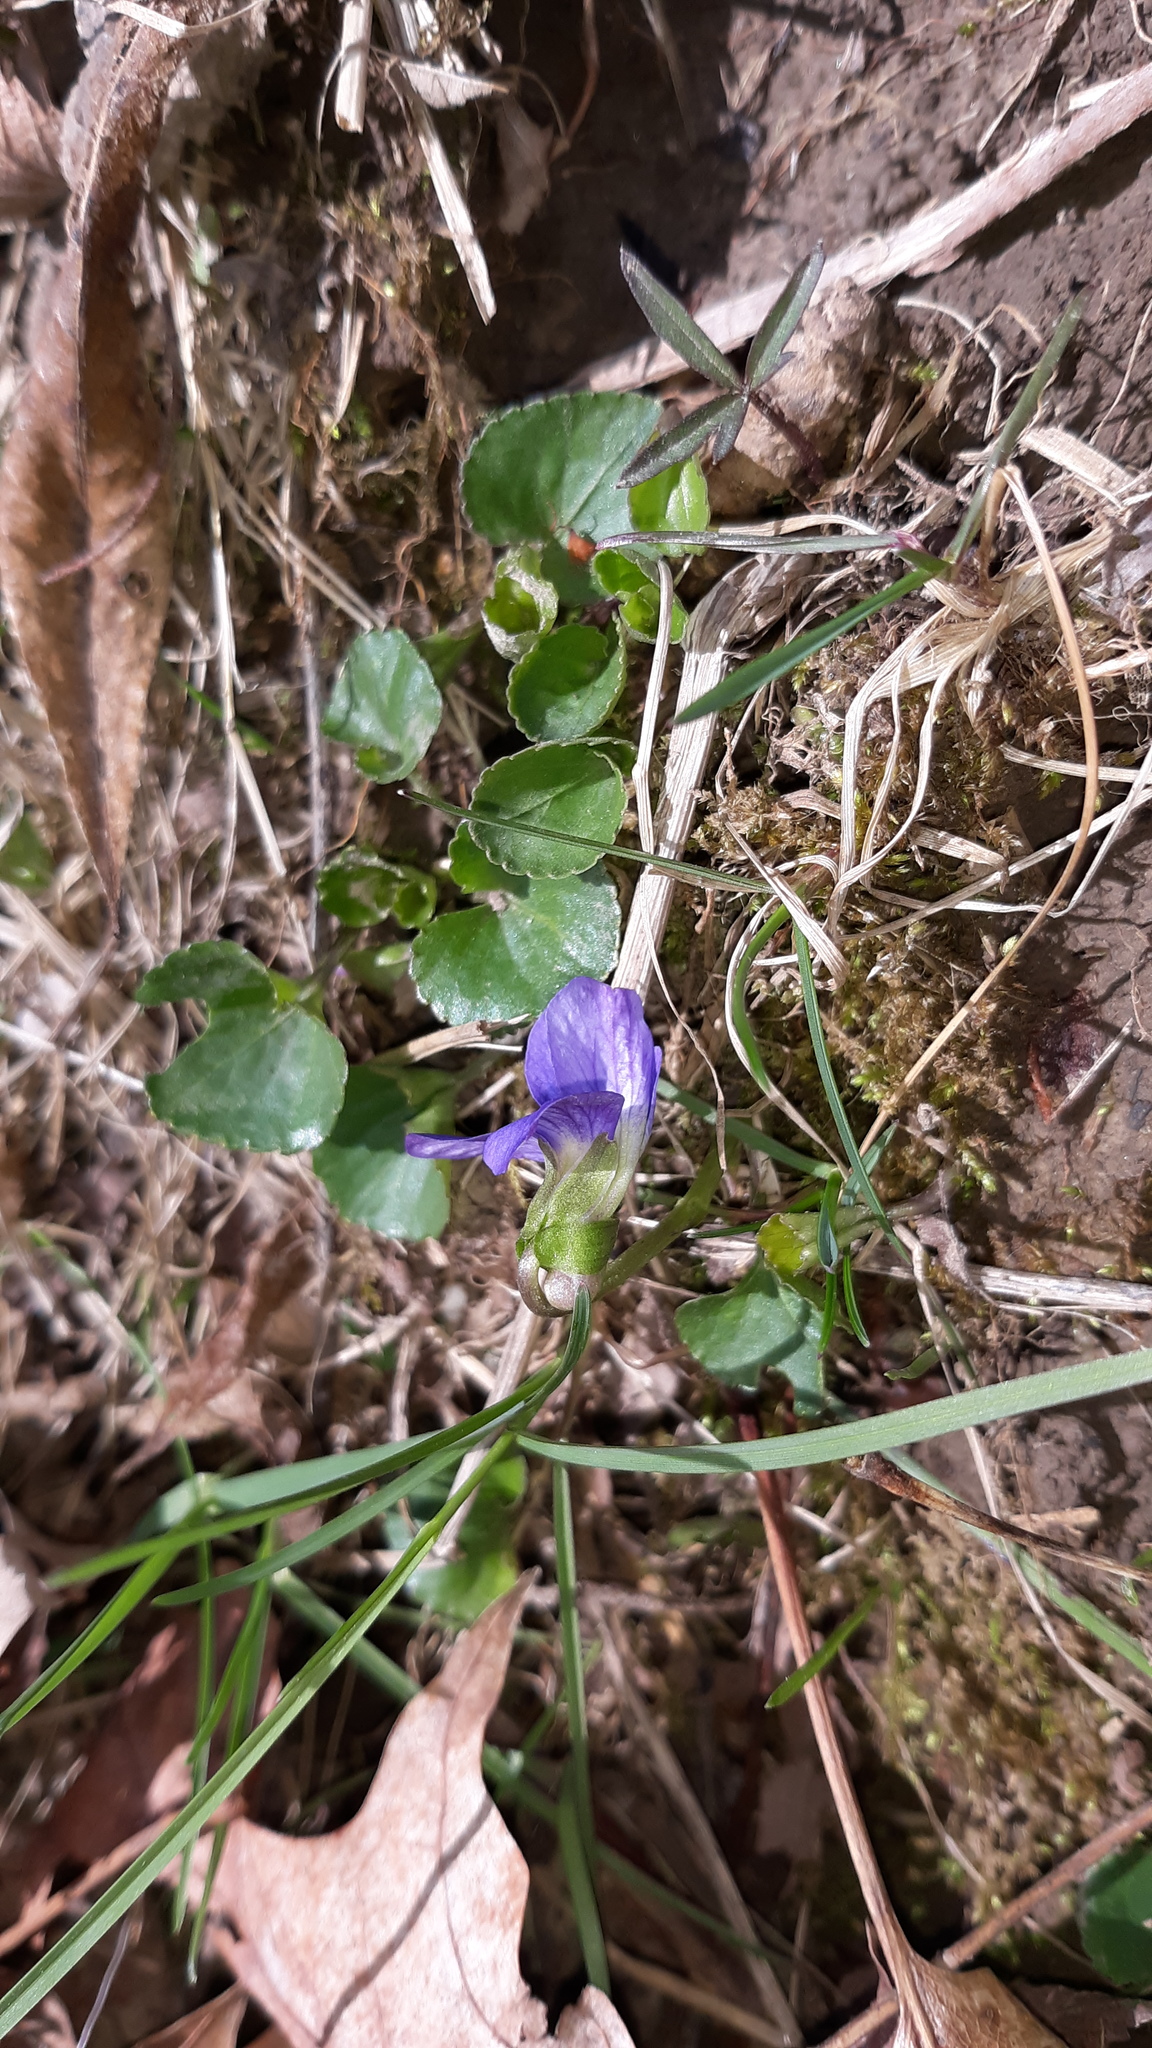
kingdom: Plantae
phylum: Tracheophyta
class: Magnoliopsida
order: Malpighiales
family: Violaceae
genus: Viola
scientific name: Viola sororia
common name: Dooryard violet
